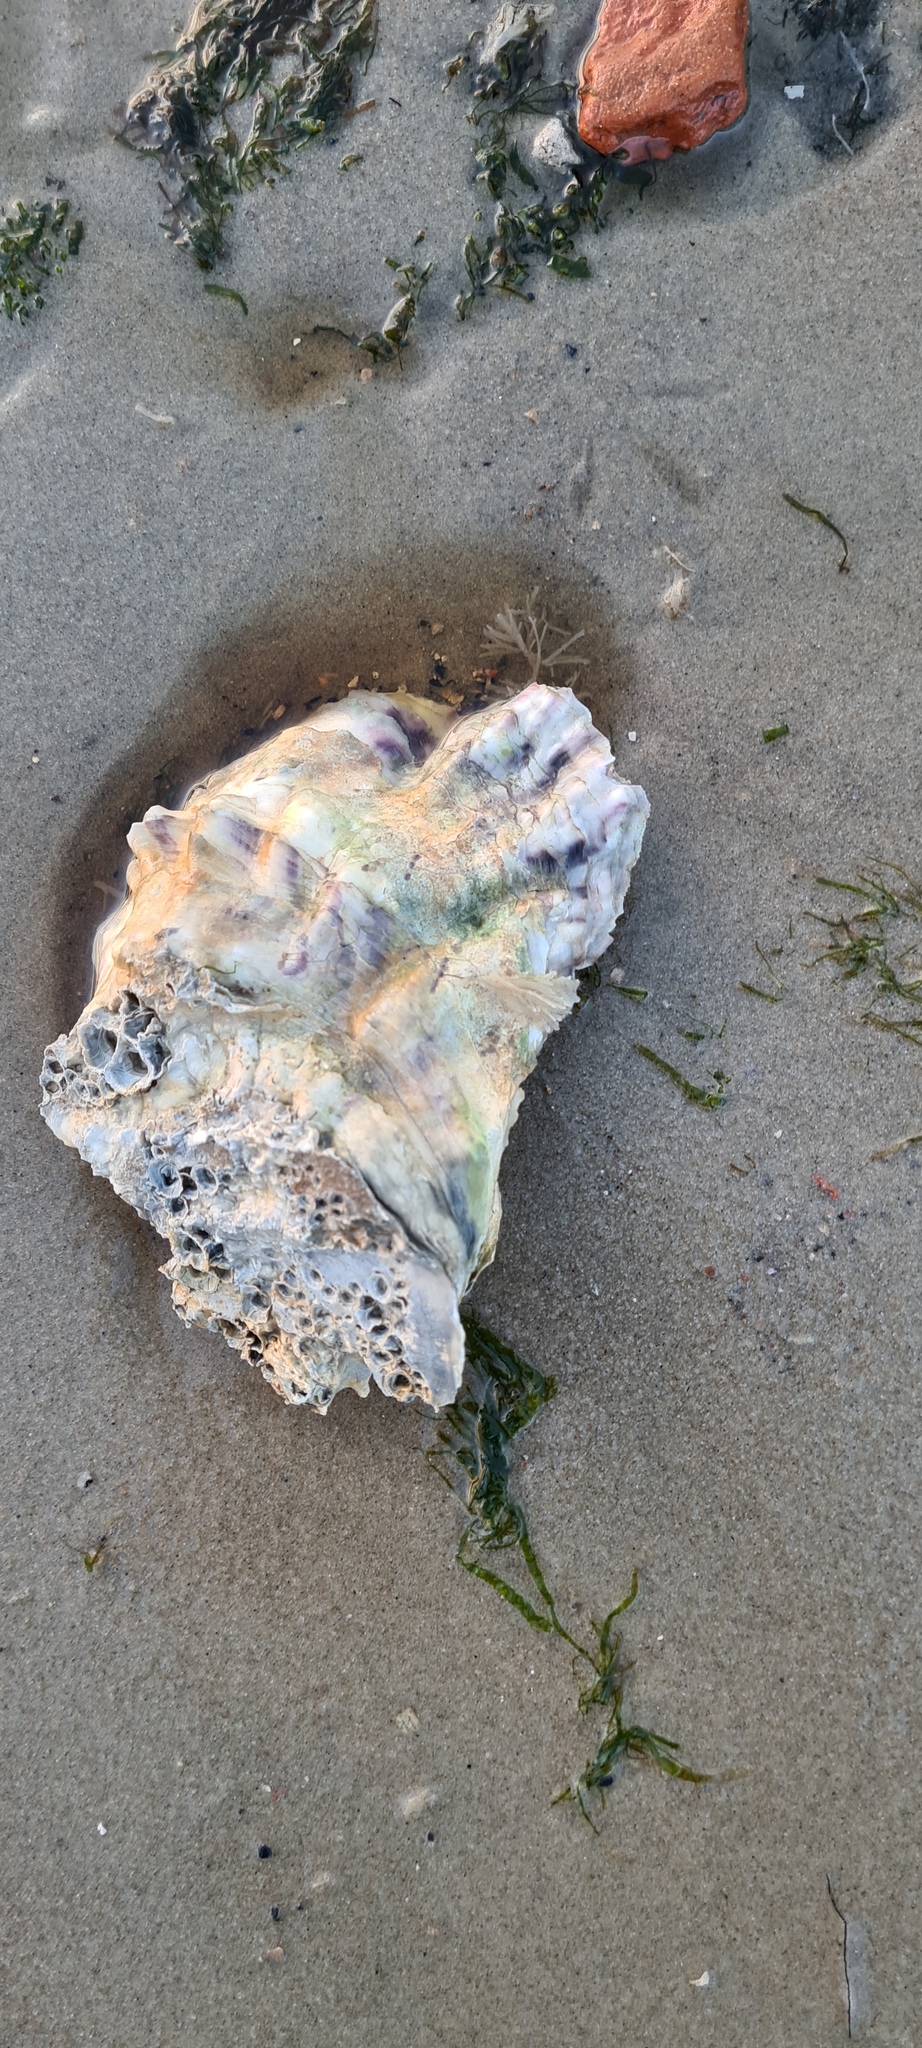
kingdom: Animalia
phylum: Mollusca
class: Bivalvia
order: Ostreida
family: Ostreidae
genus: Magallana
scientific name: Magallana gigas
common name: Pacific oyster
